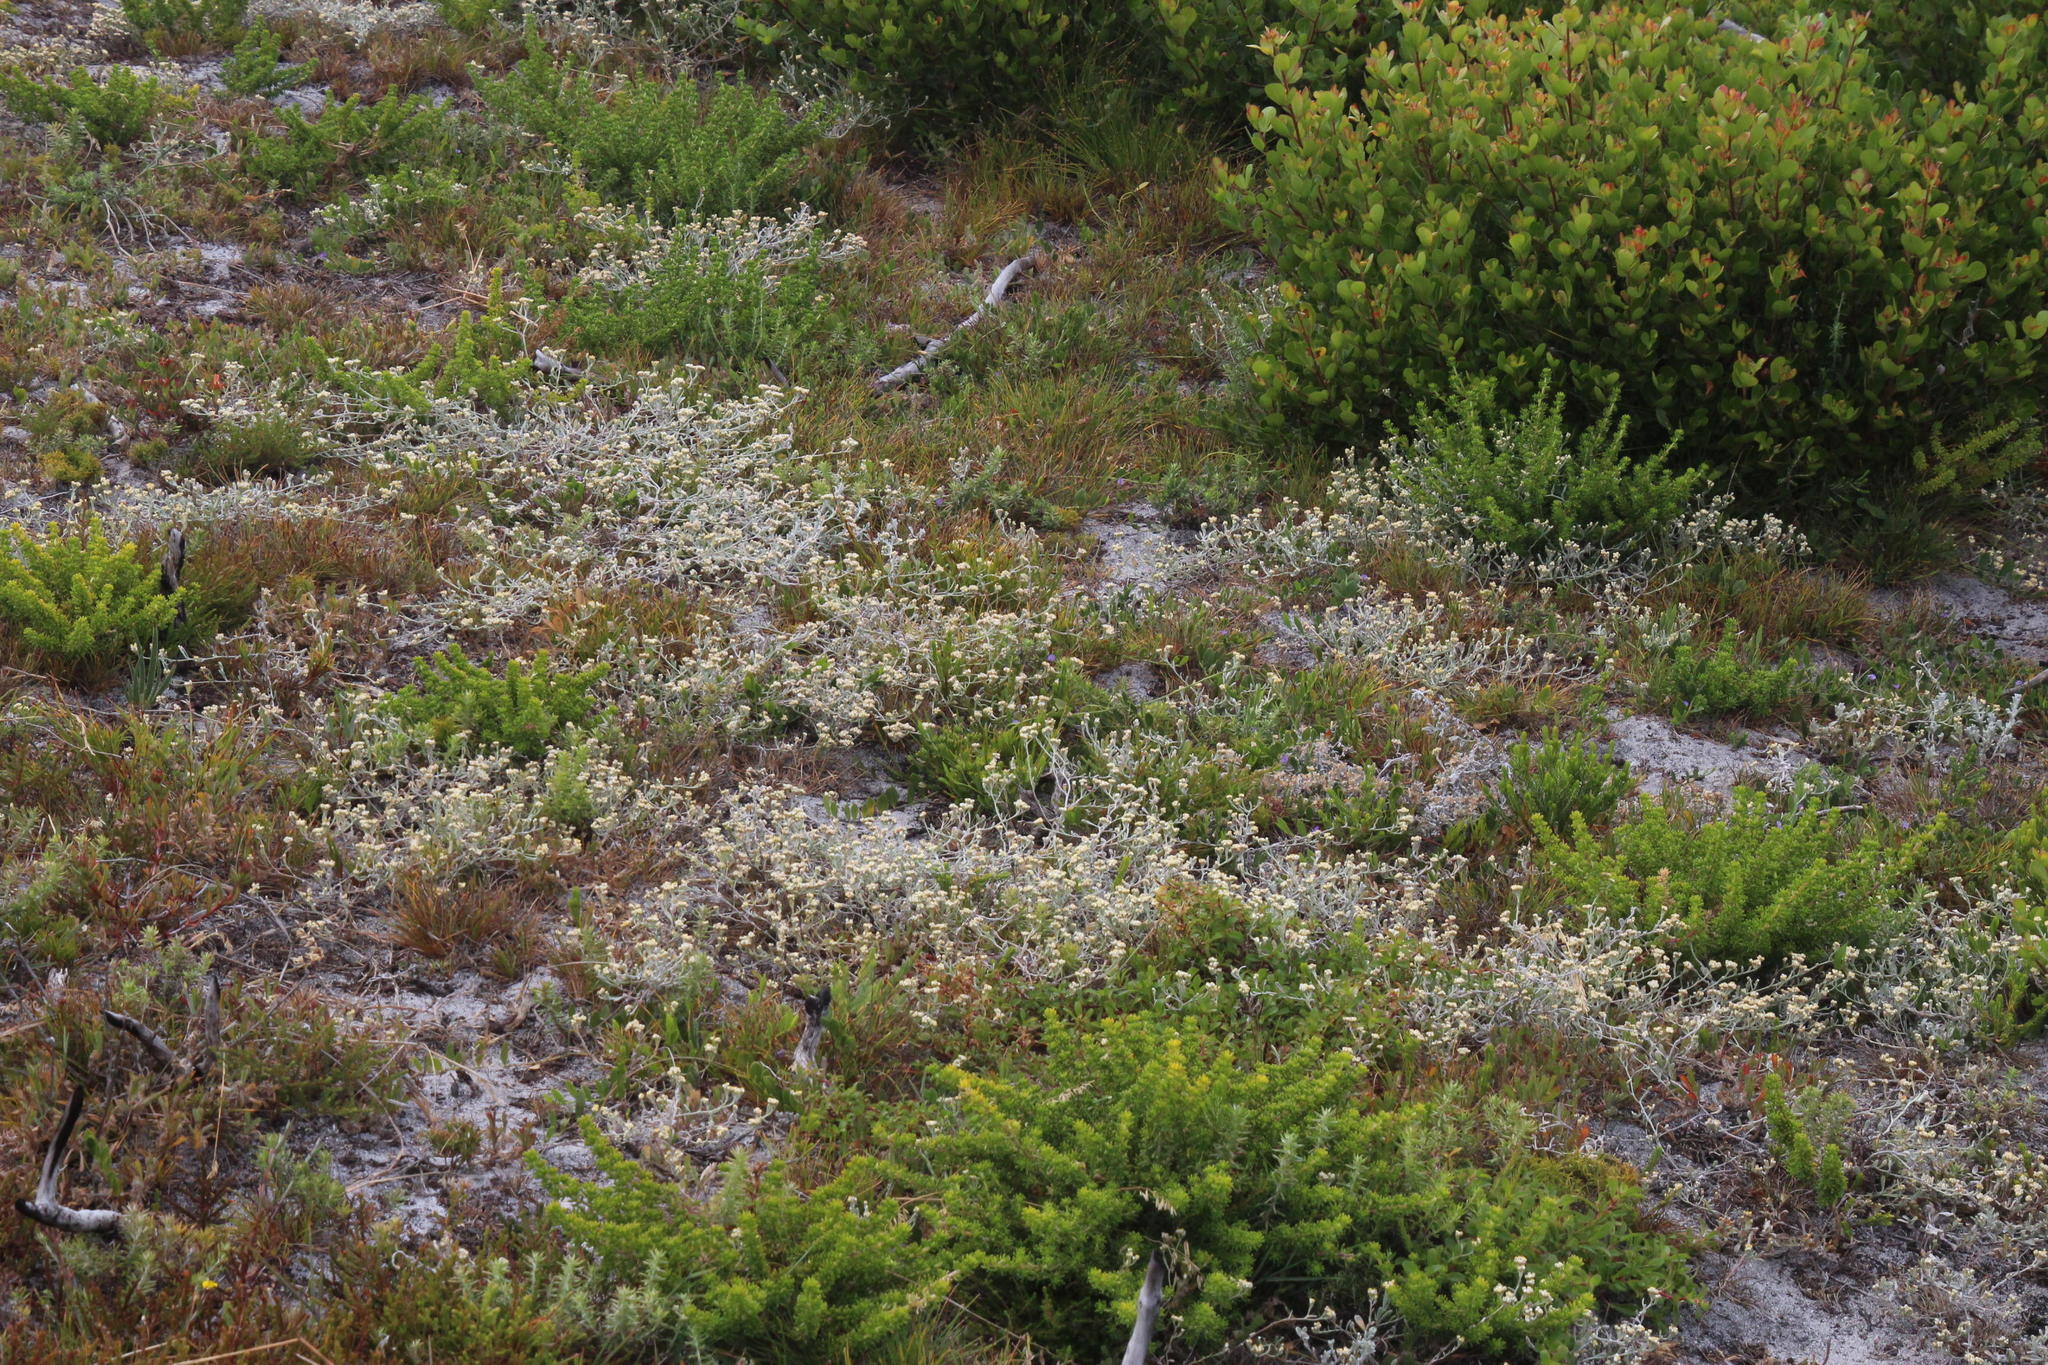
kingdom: Plantae
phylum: Tracheophyta
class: Magnoliopsida
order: Asterales
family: Asteraceae
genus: Helichrysum
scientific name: Helichrysum indicum
